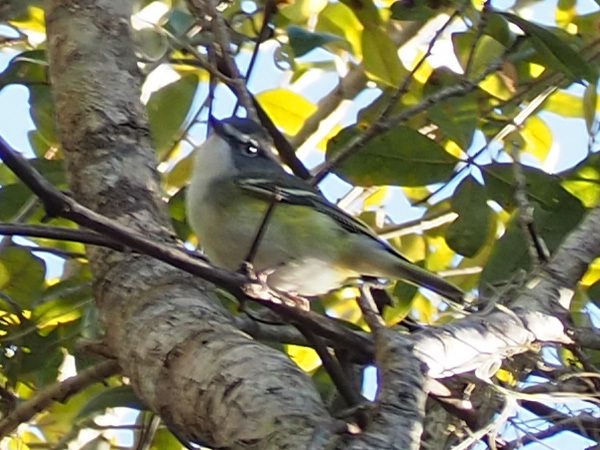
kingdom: Animalia
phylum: Chordata
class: Aves
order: Passeriformes
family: Vireonidae
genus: Vireo
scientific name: Vireo solitarius
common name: Blue-headed vireo
